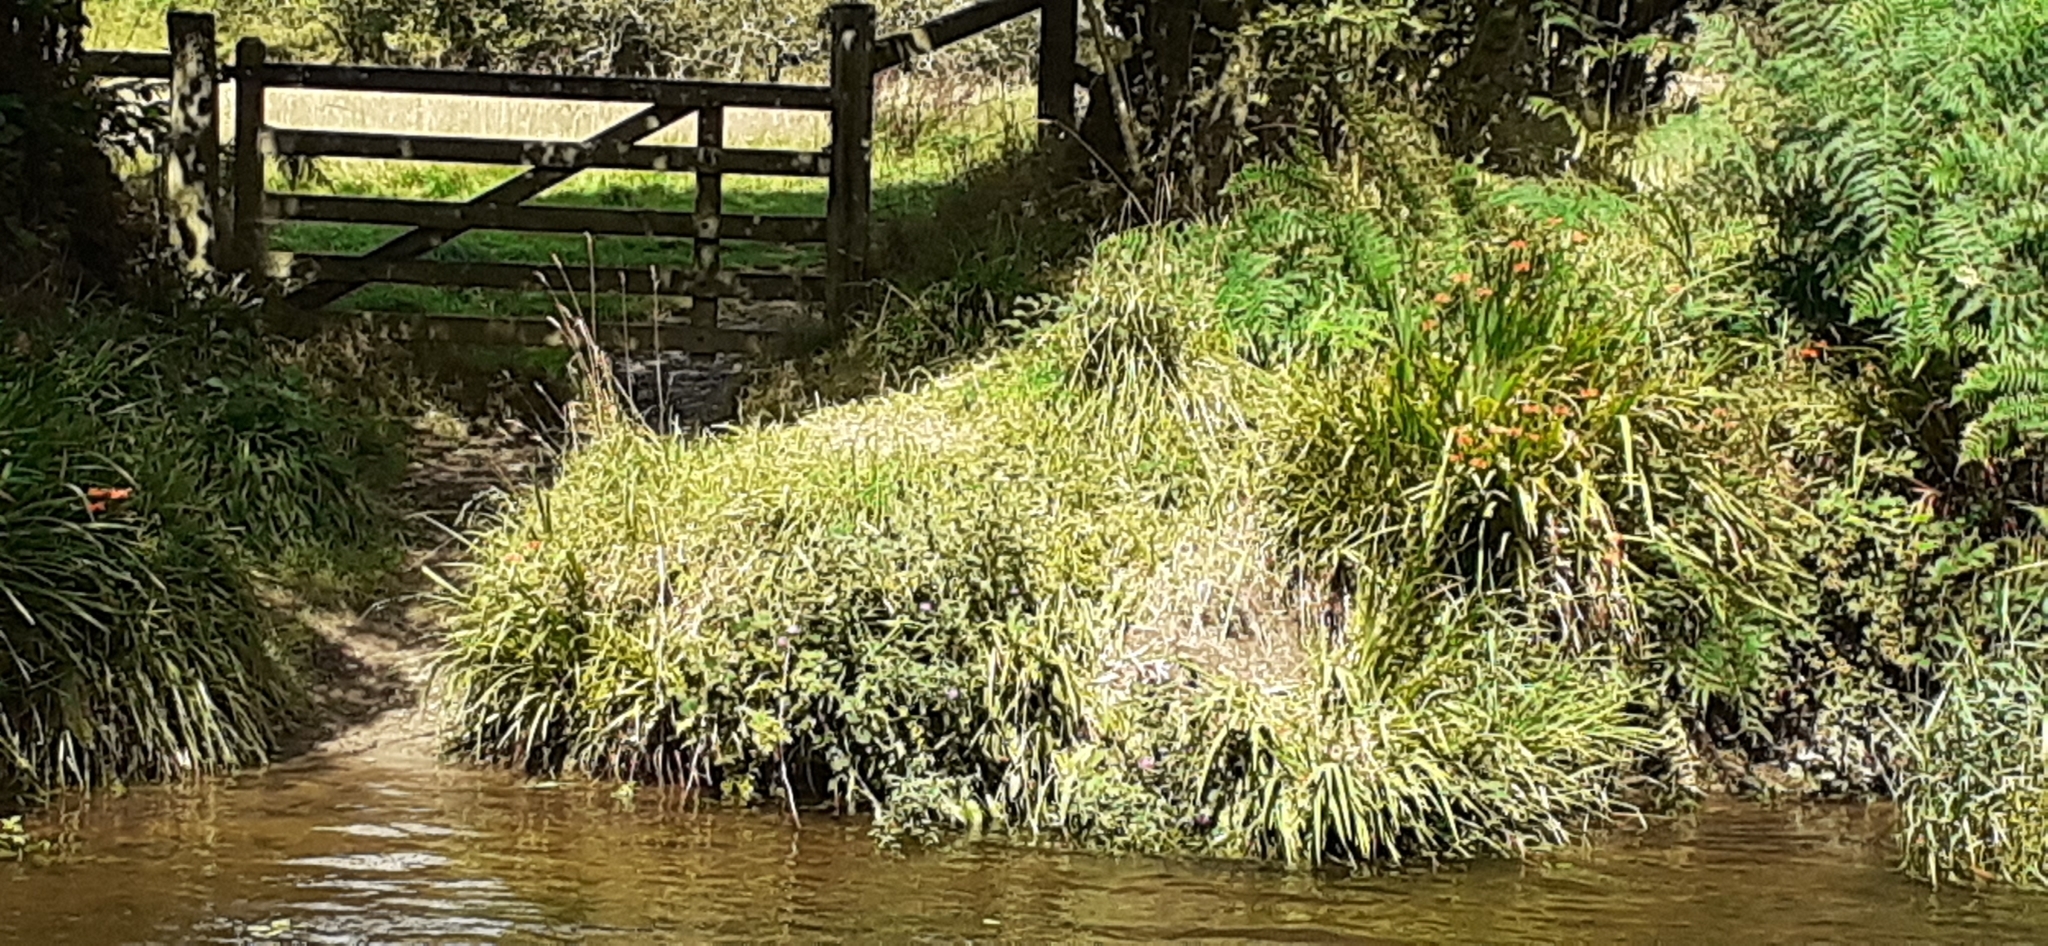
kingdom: Plantae
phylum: Tracheophyta
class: Liliopsida
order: Asparagales
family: Iridaceae
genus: Crocosmia
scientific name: Crocosmia crocosmiiflora
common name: Montbretia
